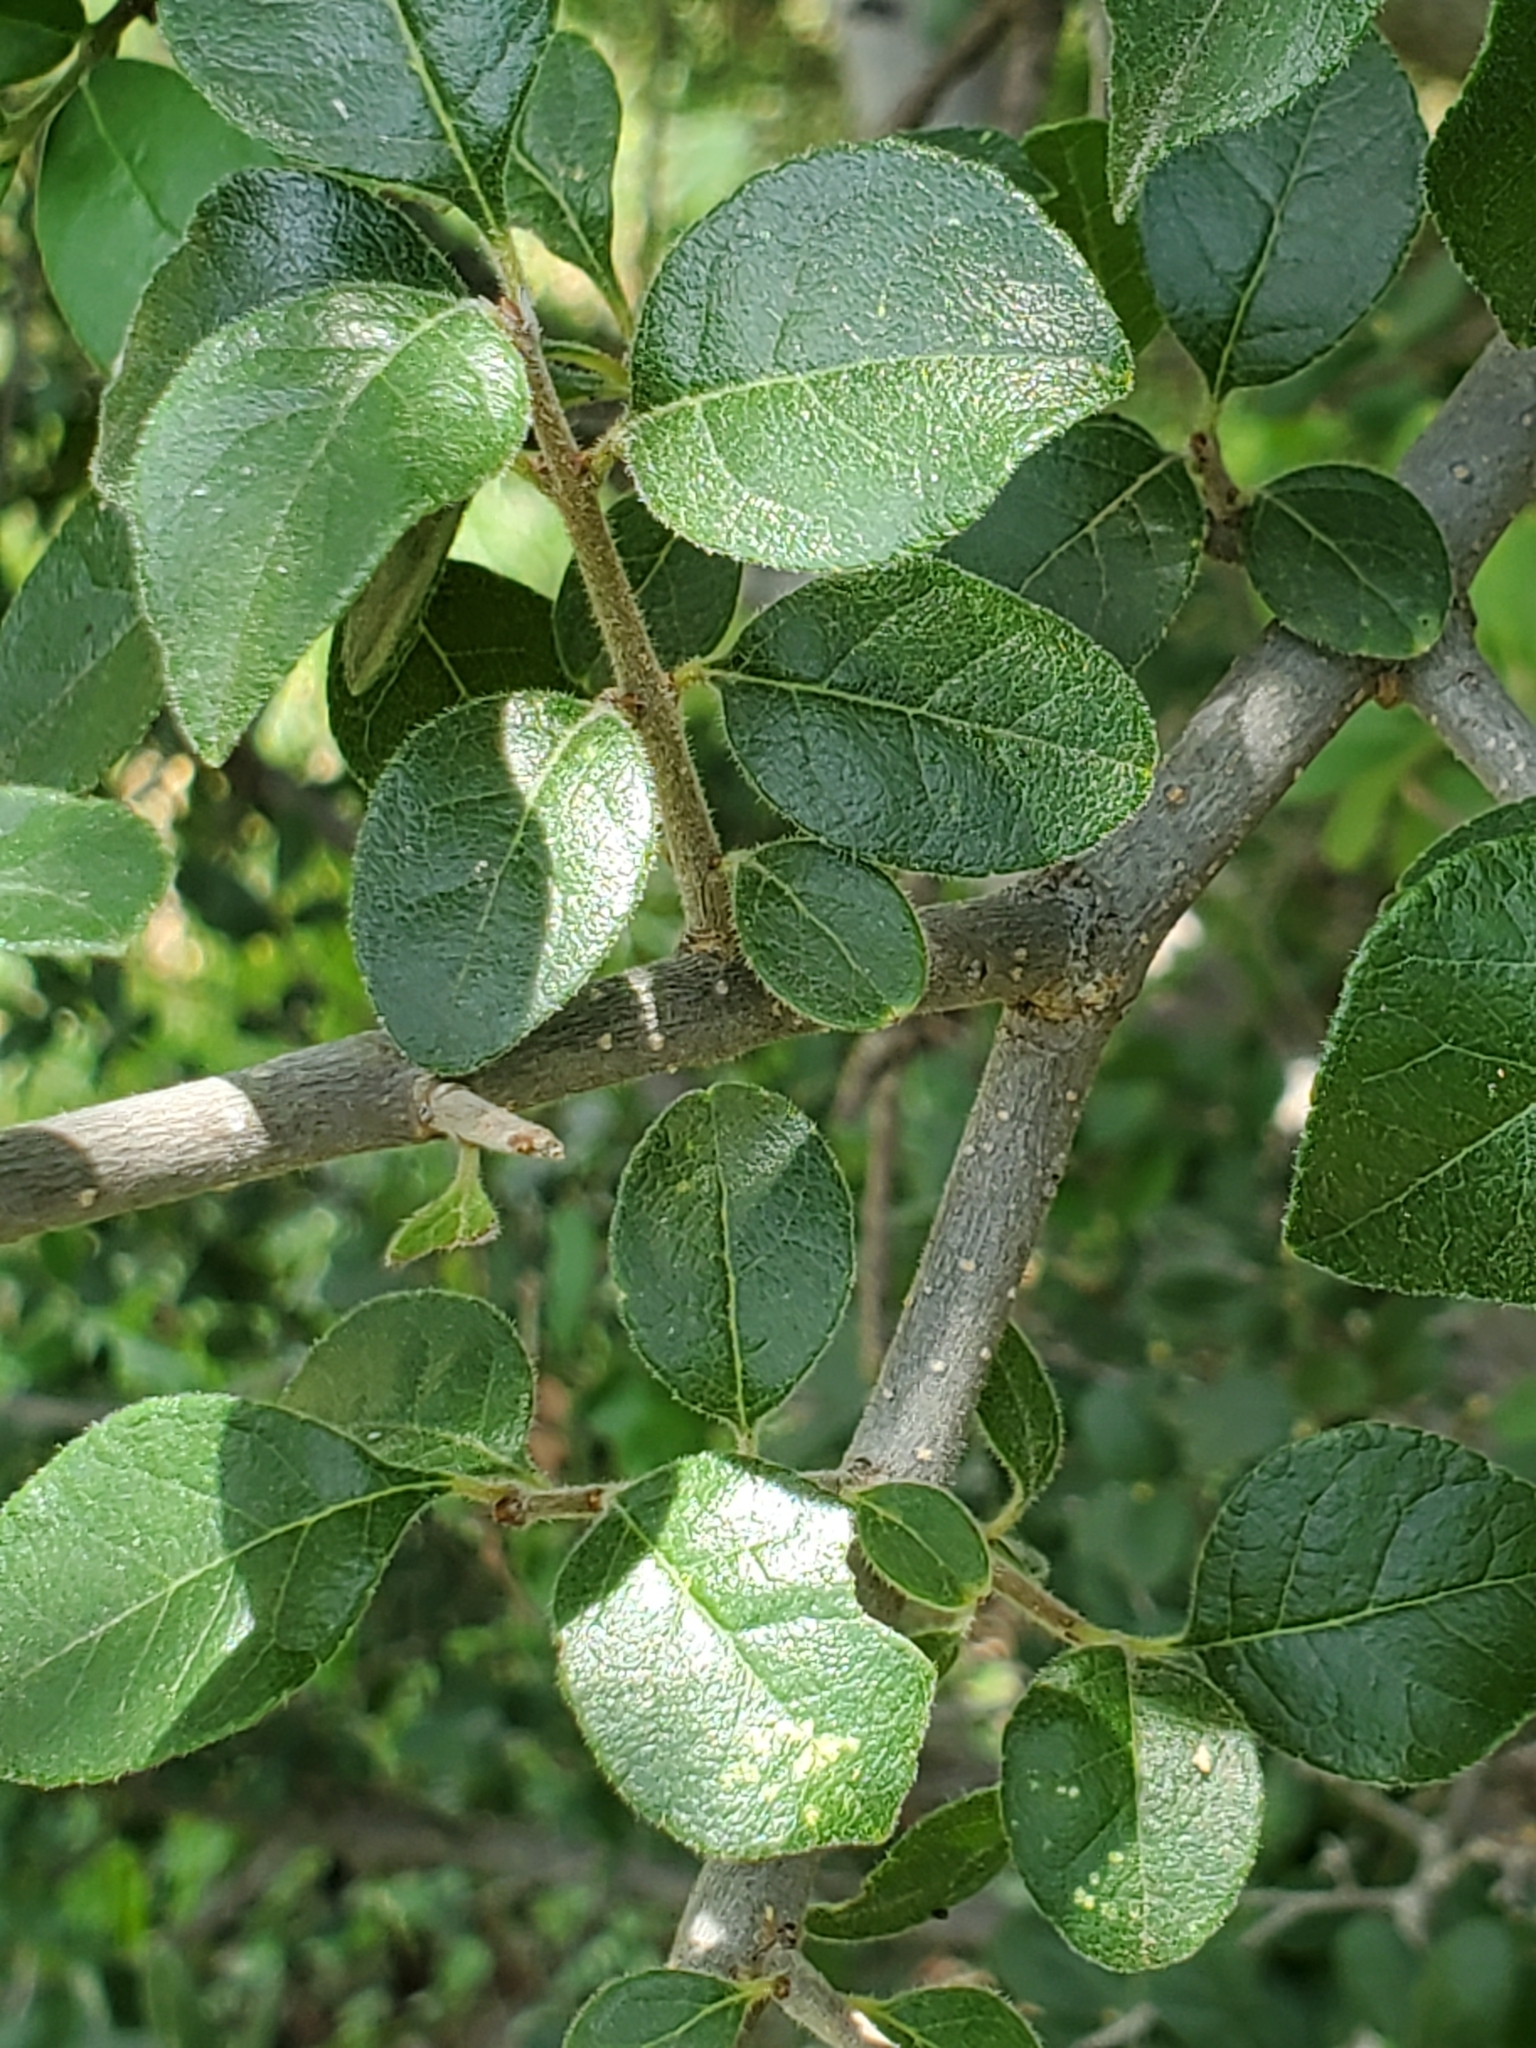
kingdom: Plantae
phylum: Tracheophyta
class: Magnoliopsida
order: Lamiales
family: Oleaceae
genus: Forestiera
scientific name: Forestiera pubescens
